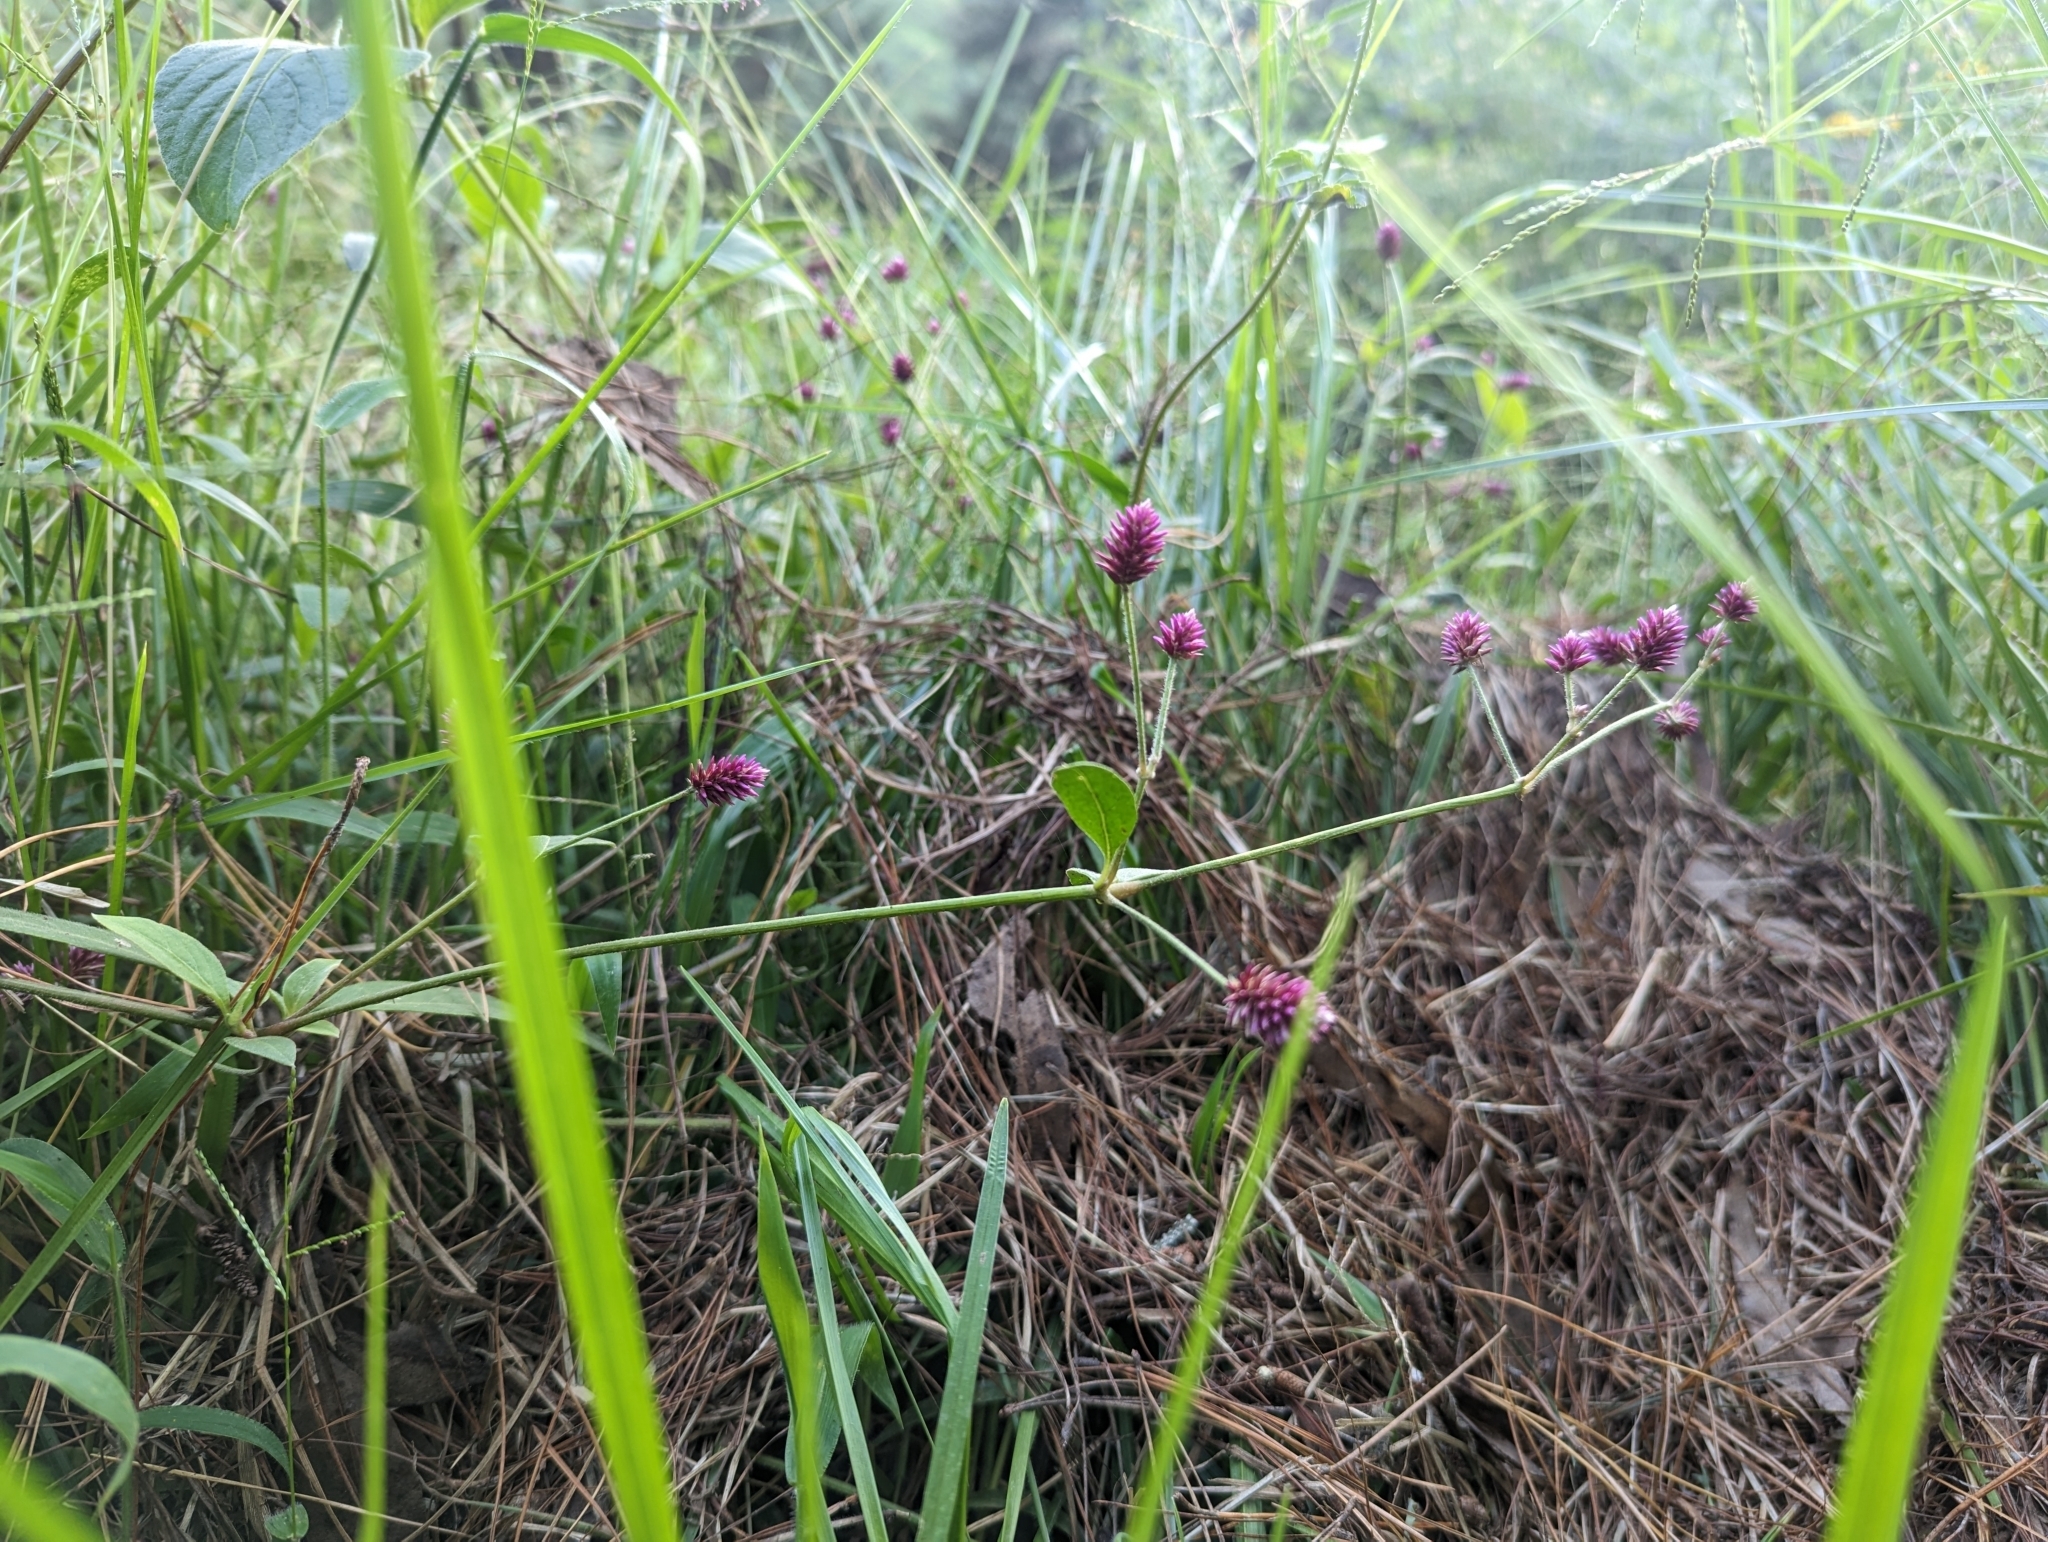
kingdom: Plantae
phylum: Tracheophyta
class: Magnoliopsida
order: Caryophyllales
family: Amaranthaceae
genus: Alternanthera
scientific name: Alternanthera porrigens
